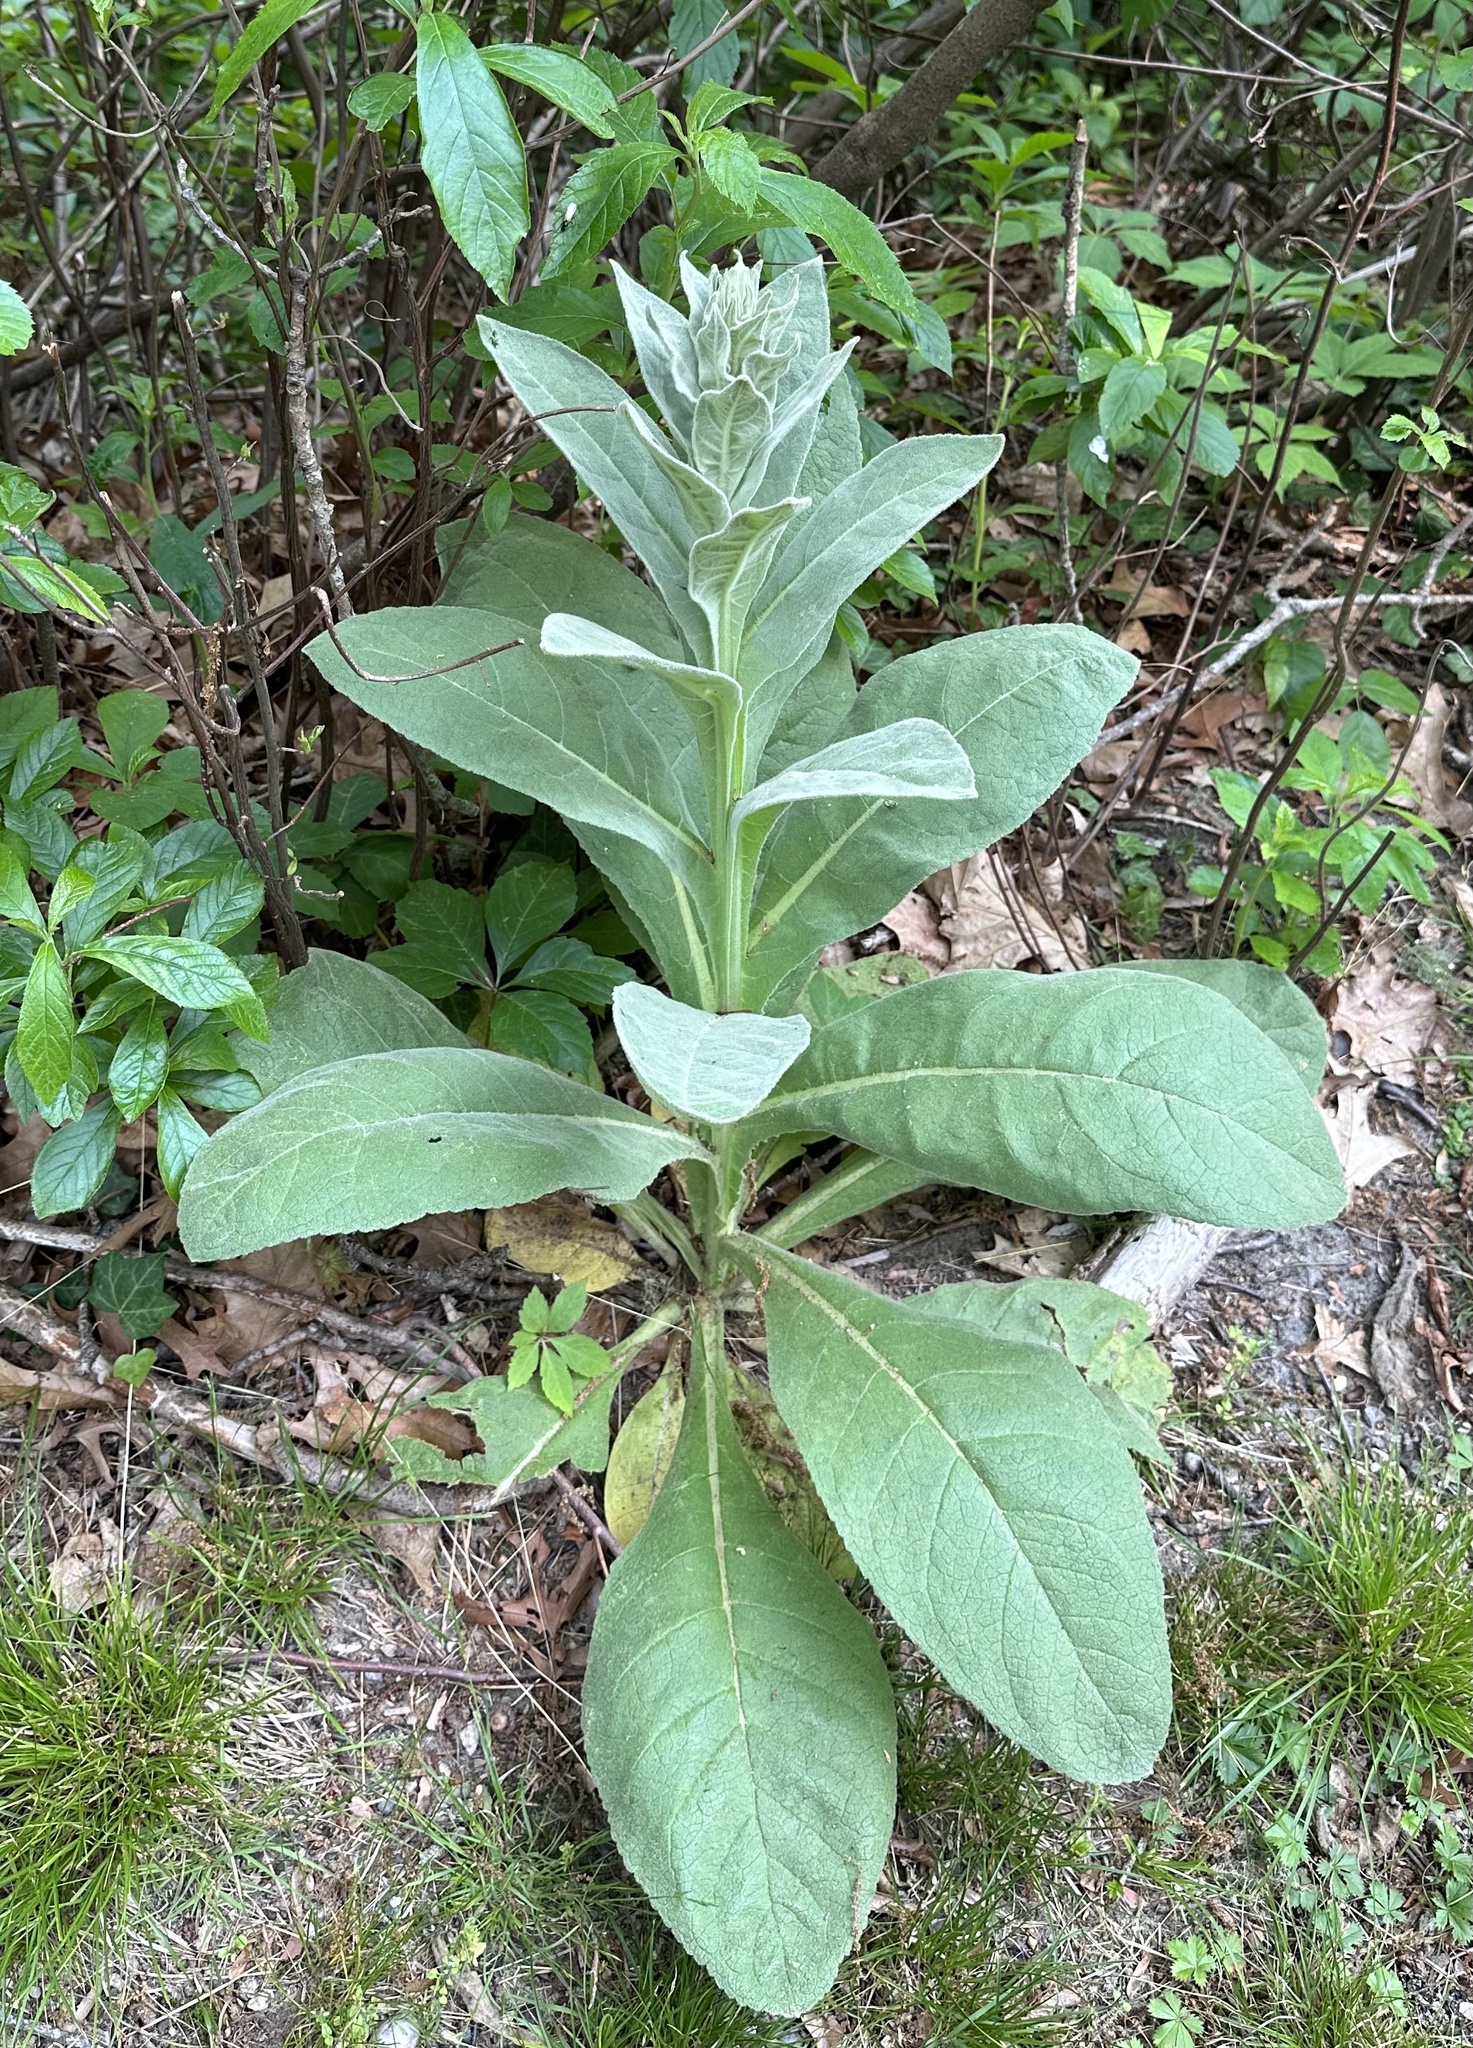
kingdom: Plantae
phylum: Tracheophyta
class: Magnoliopsida
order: Lamiales
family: Scrophulariaceae
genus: Verbascum
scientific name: Verbascum thapsus
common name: Common mullein
